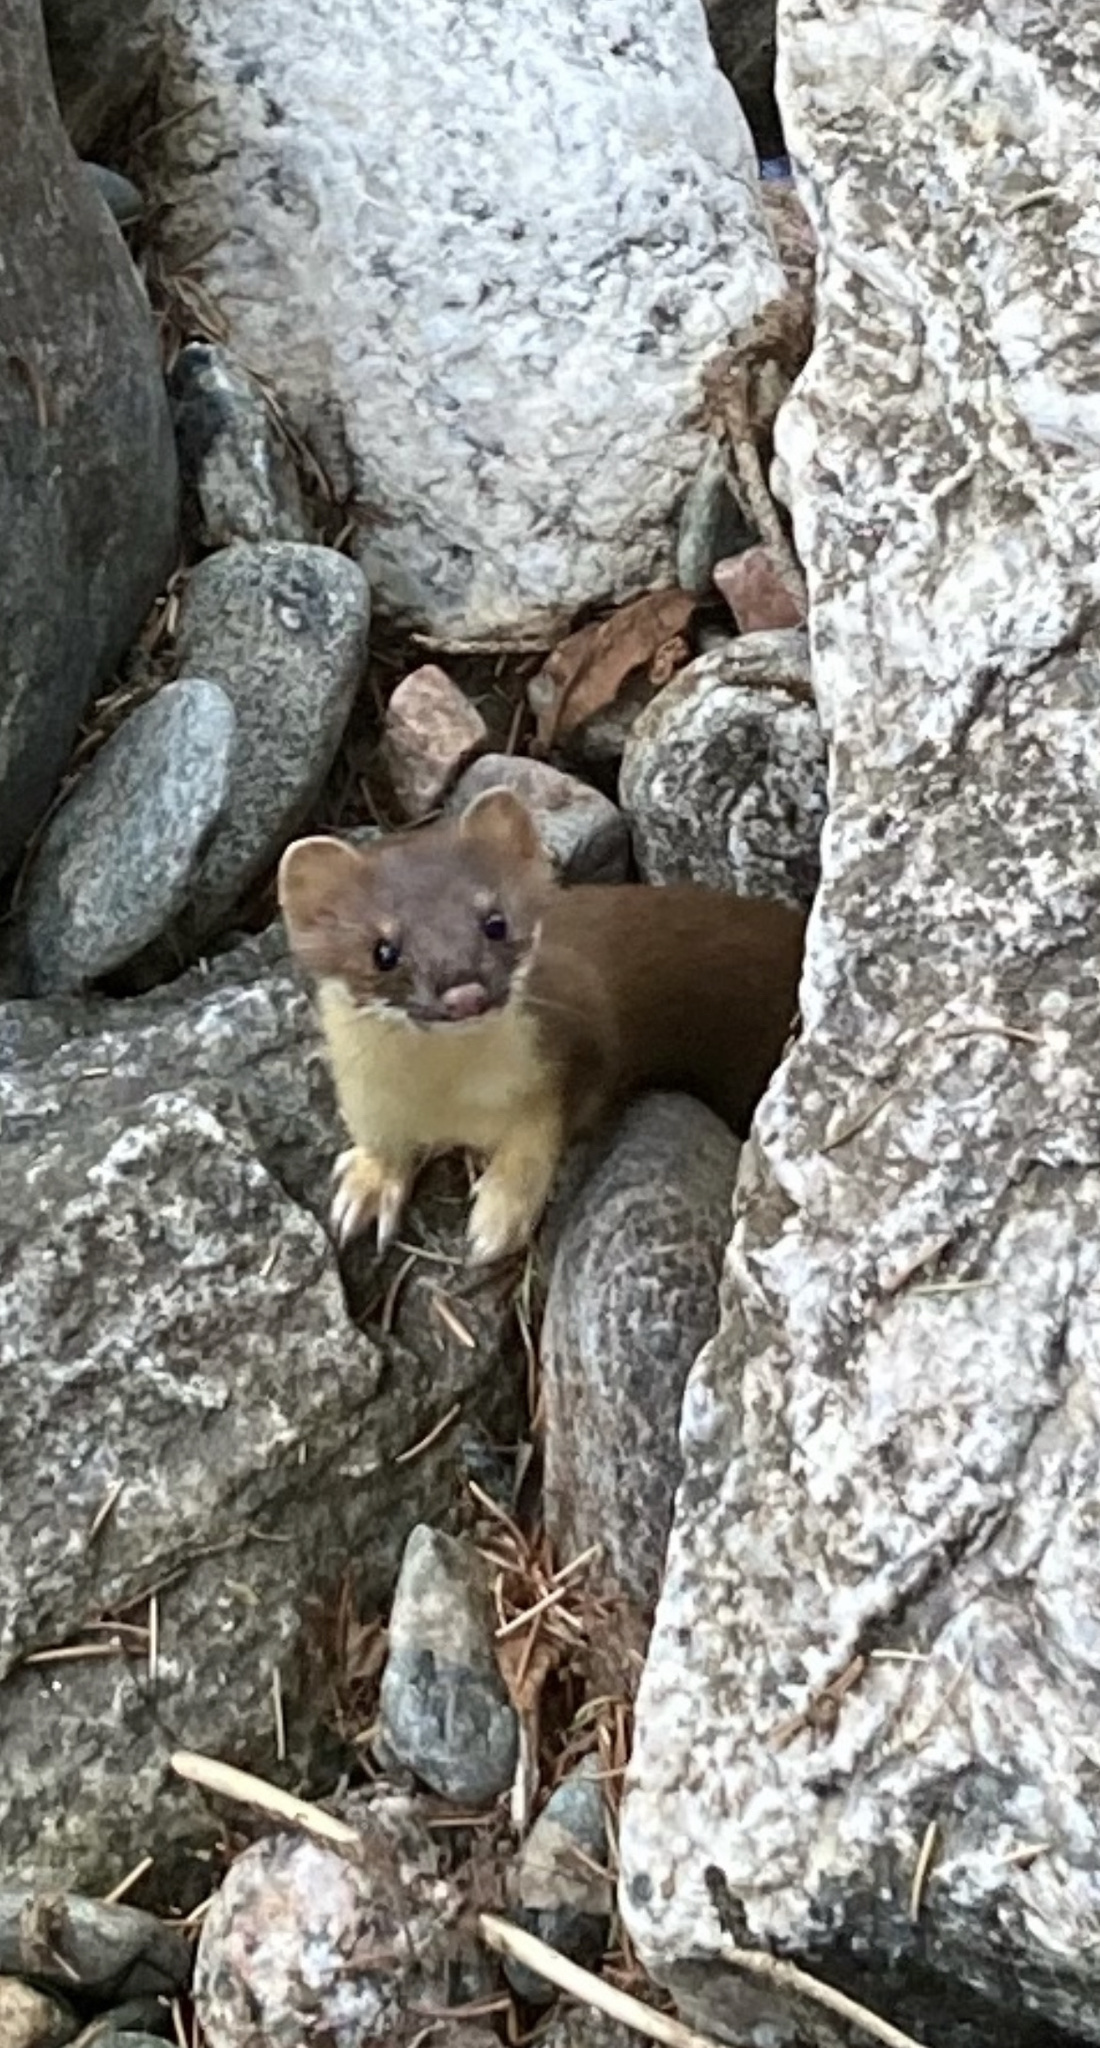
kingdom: Animalia
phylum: Chordata
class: Mammalia
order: Carnivora
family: Mustelidae
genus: Mustela
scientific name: Mustela
